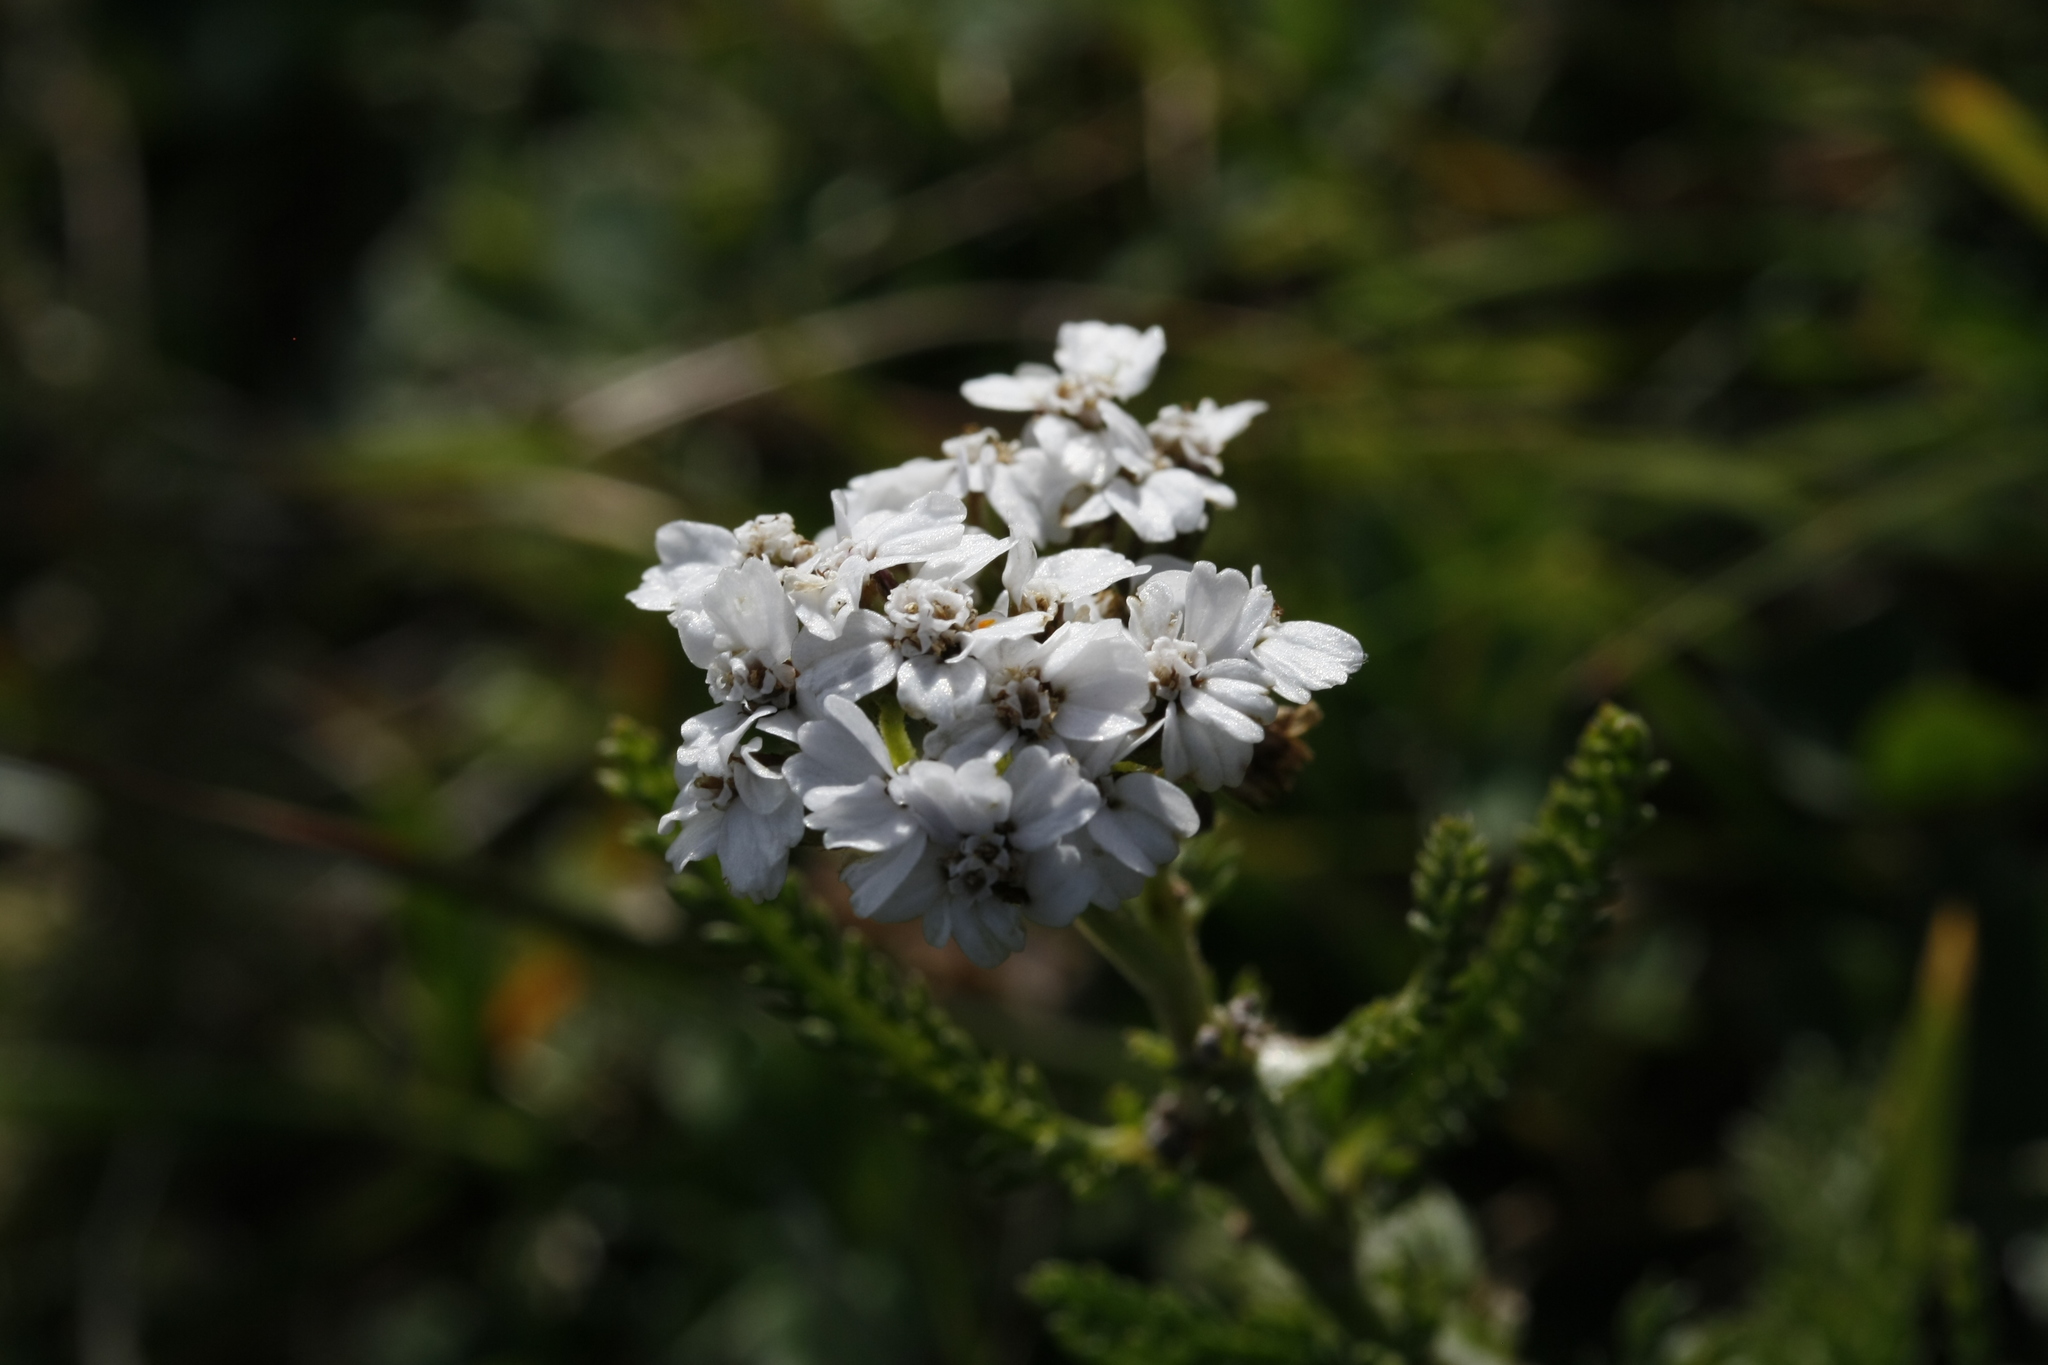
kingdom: Plantae
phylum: Tracheophyta
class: Magnoliopsida
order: Asterales
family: Asteraceae
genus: Achillea
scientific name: Achillea millefolium
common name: Yarrow
